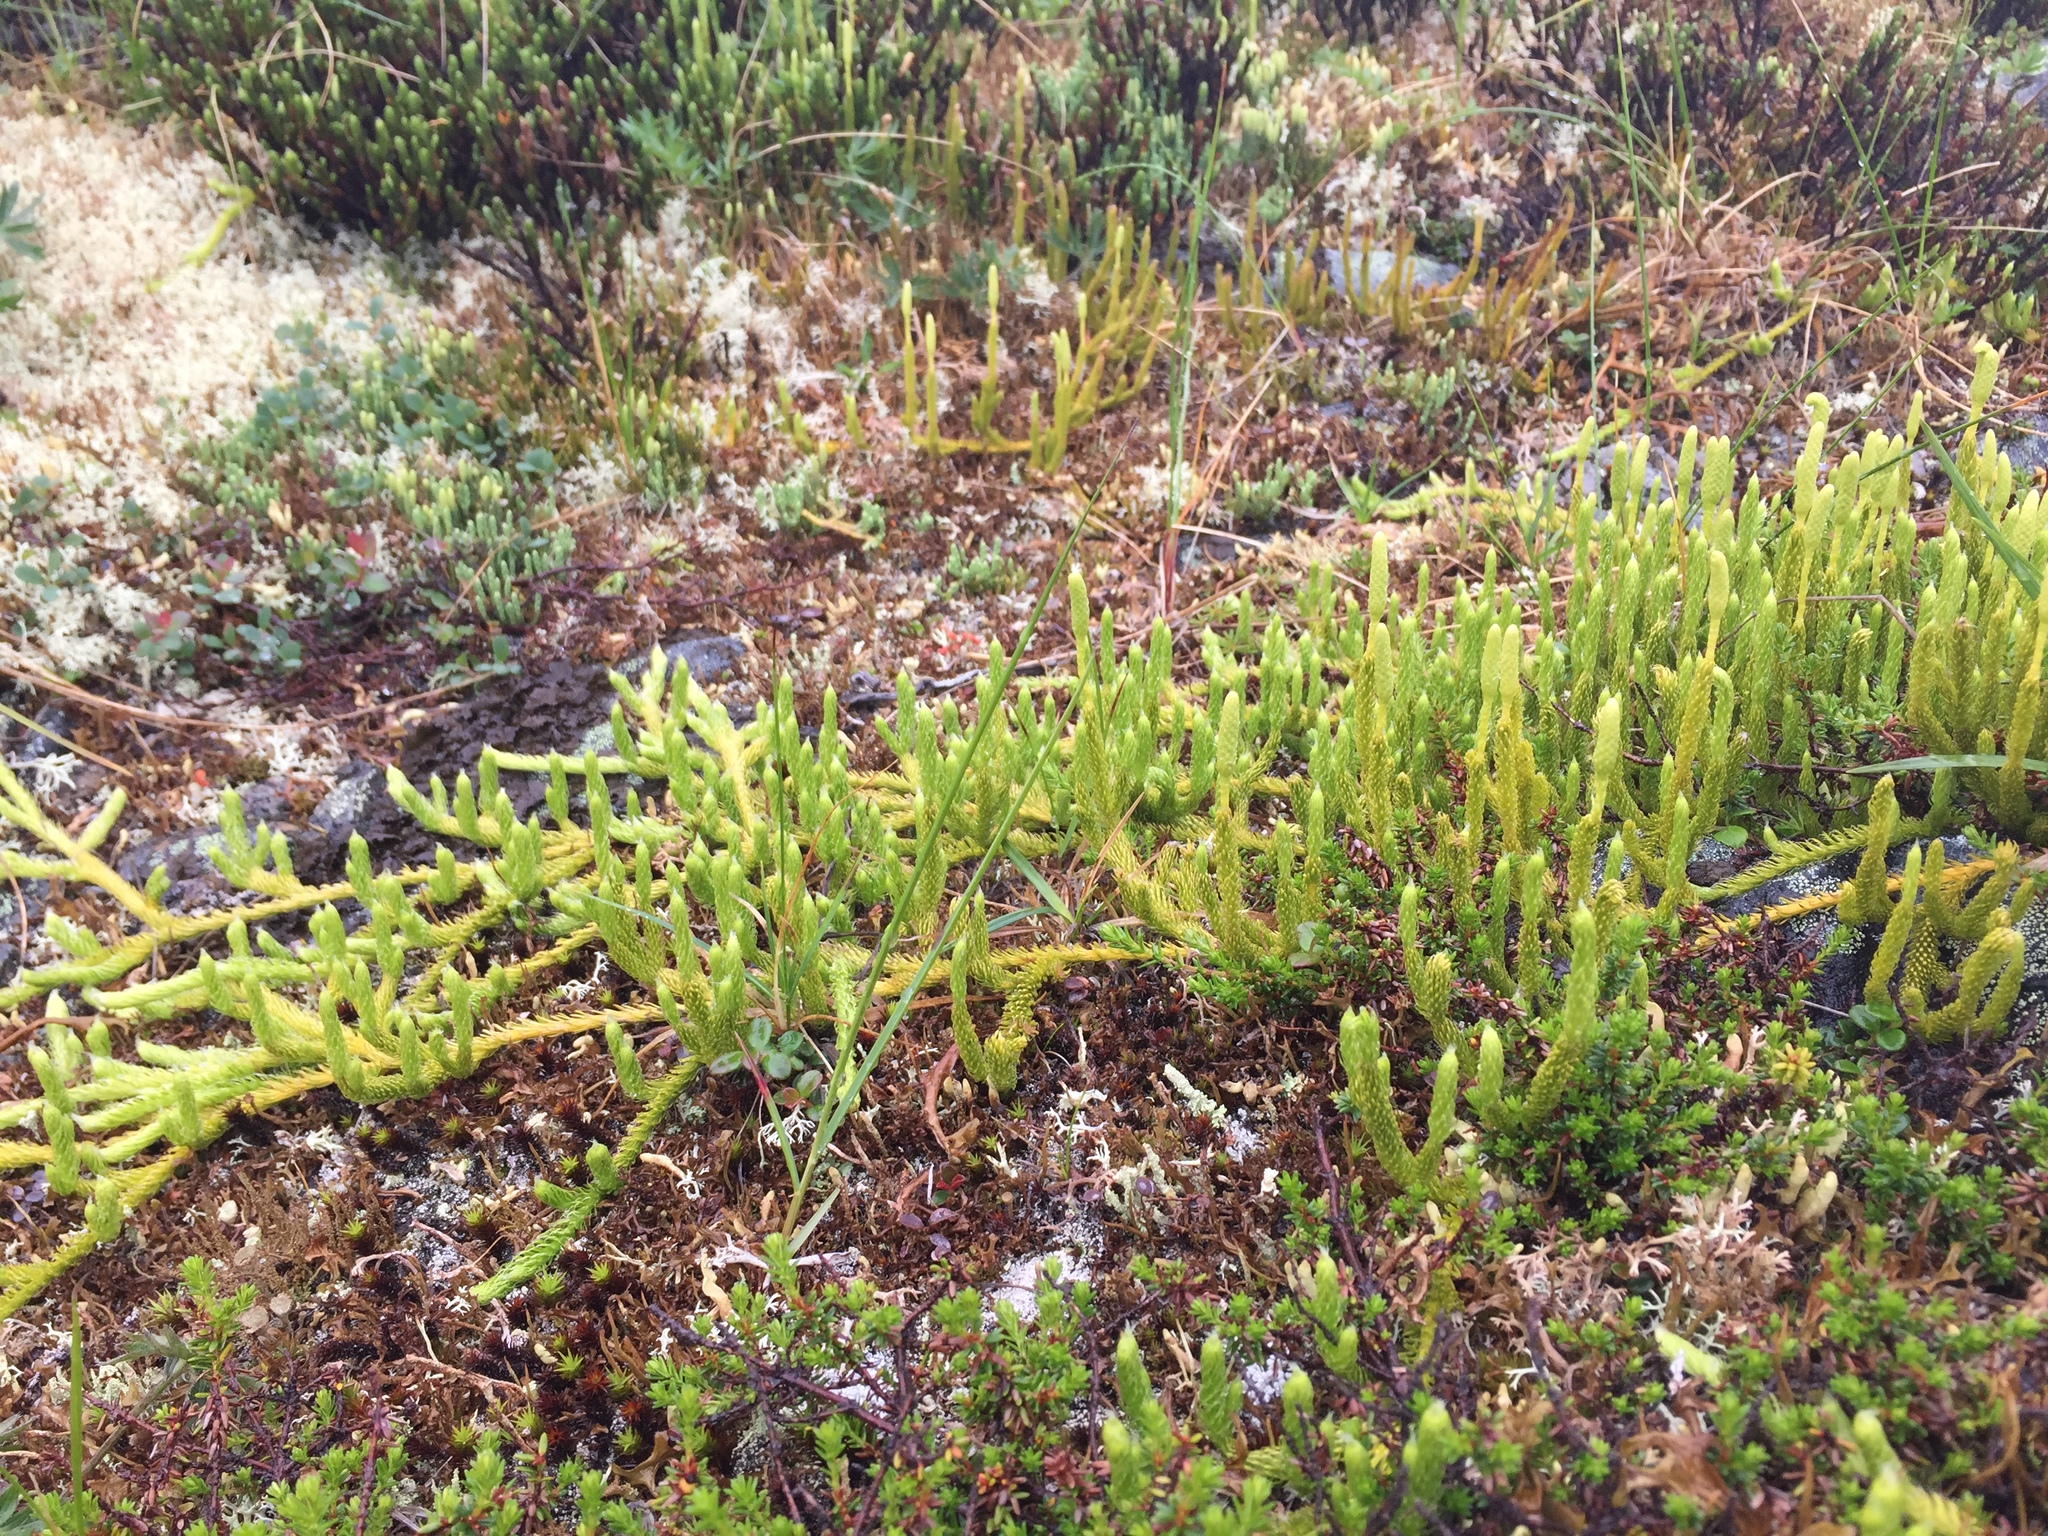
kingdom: Plantae
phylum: Tracheophyta
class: Lycopodiopsida
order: Lycopodiales
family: Lycopodiaceae
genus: Lycopodium
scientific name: Lycopodium lagopus
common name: One-cone clubmoss
